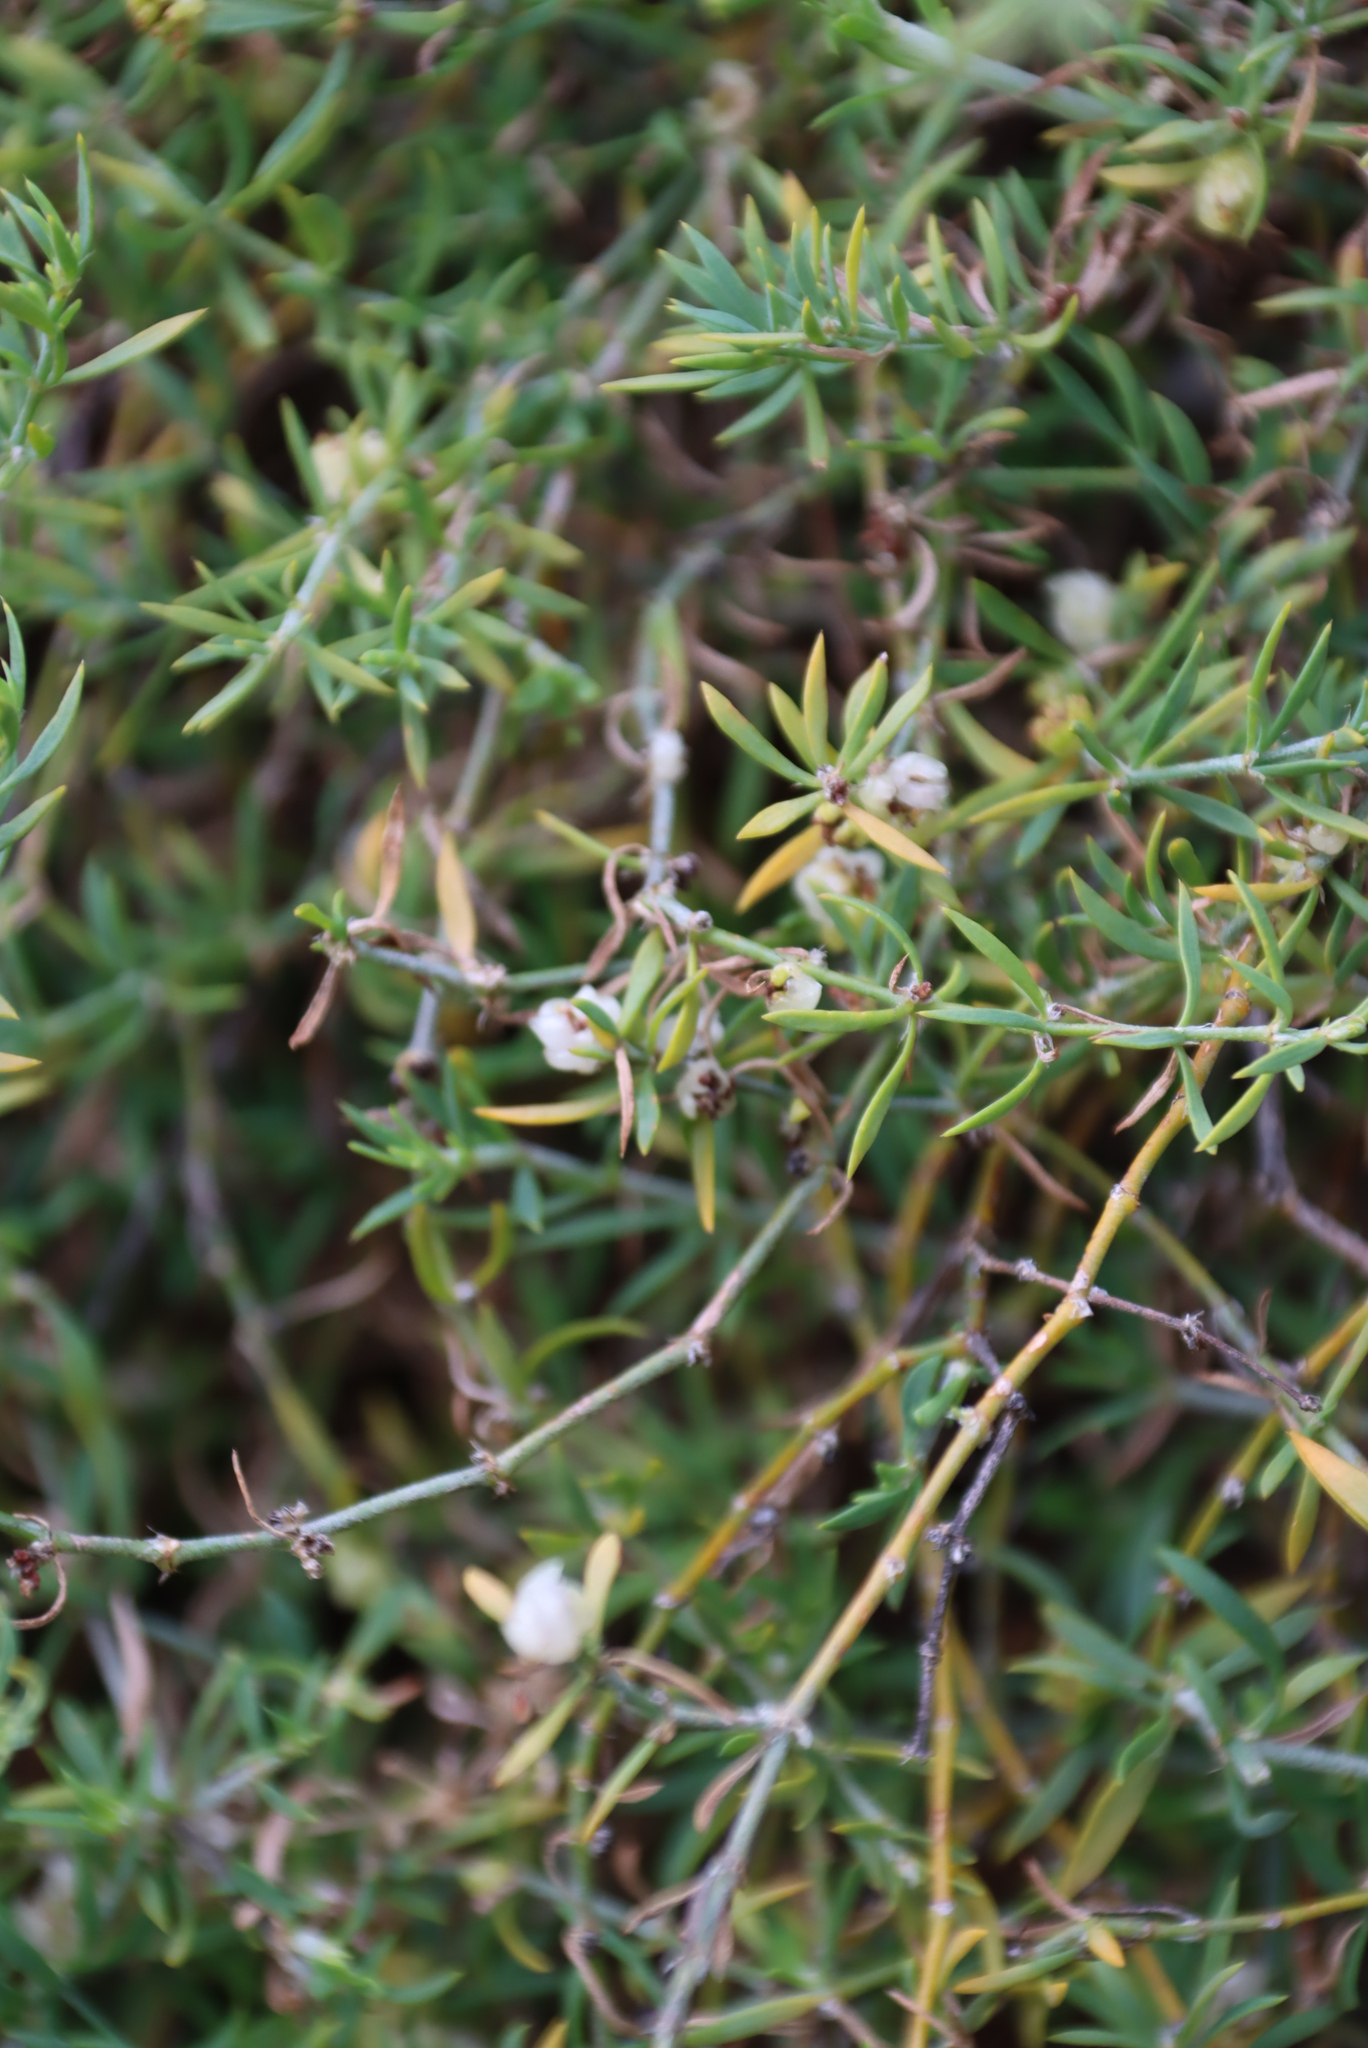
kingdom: Plantae
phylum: Tracheophyta
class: Magnoliopsida
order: Caryophyllales
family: Caryophyllaceae
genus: Pollichia
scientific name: Pollichia campestris
